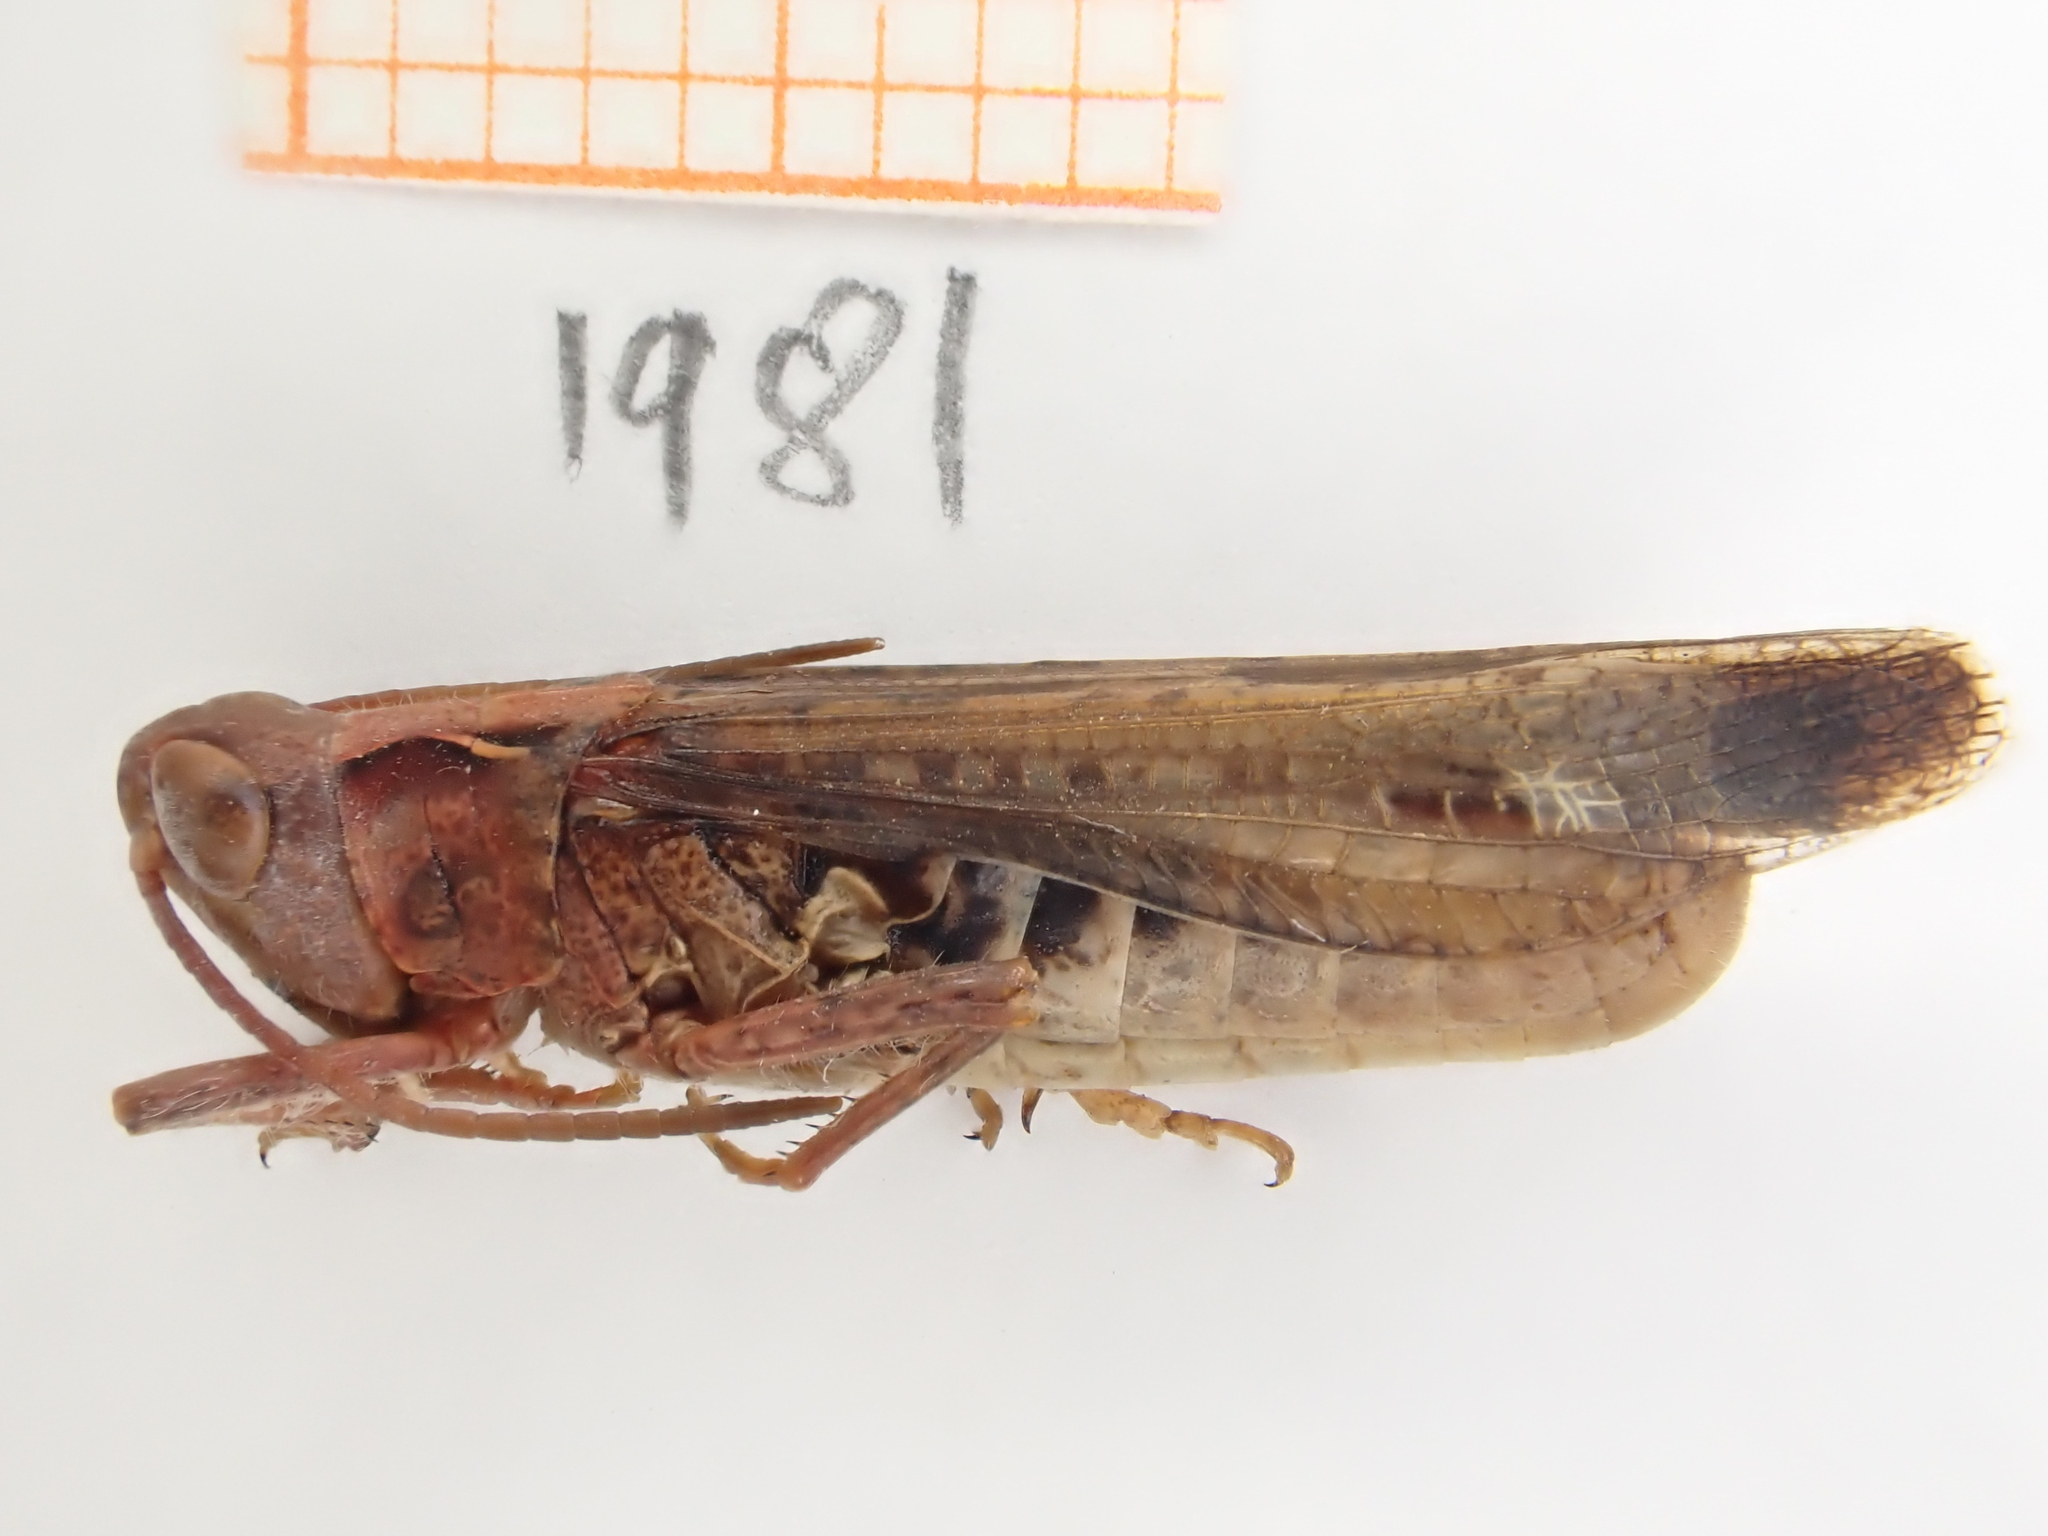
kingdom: Animalia
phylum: Arthropoda
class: Insecta
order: Orthoptera
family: Acrididae
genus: Chorthippus
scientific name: Chorthippus biguttulus
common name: Bow-winged grasshopper
